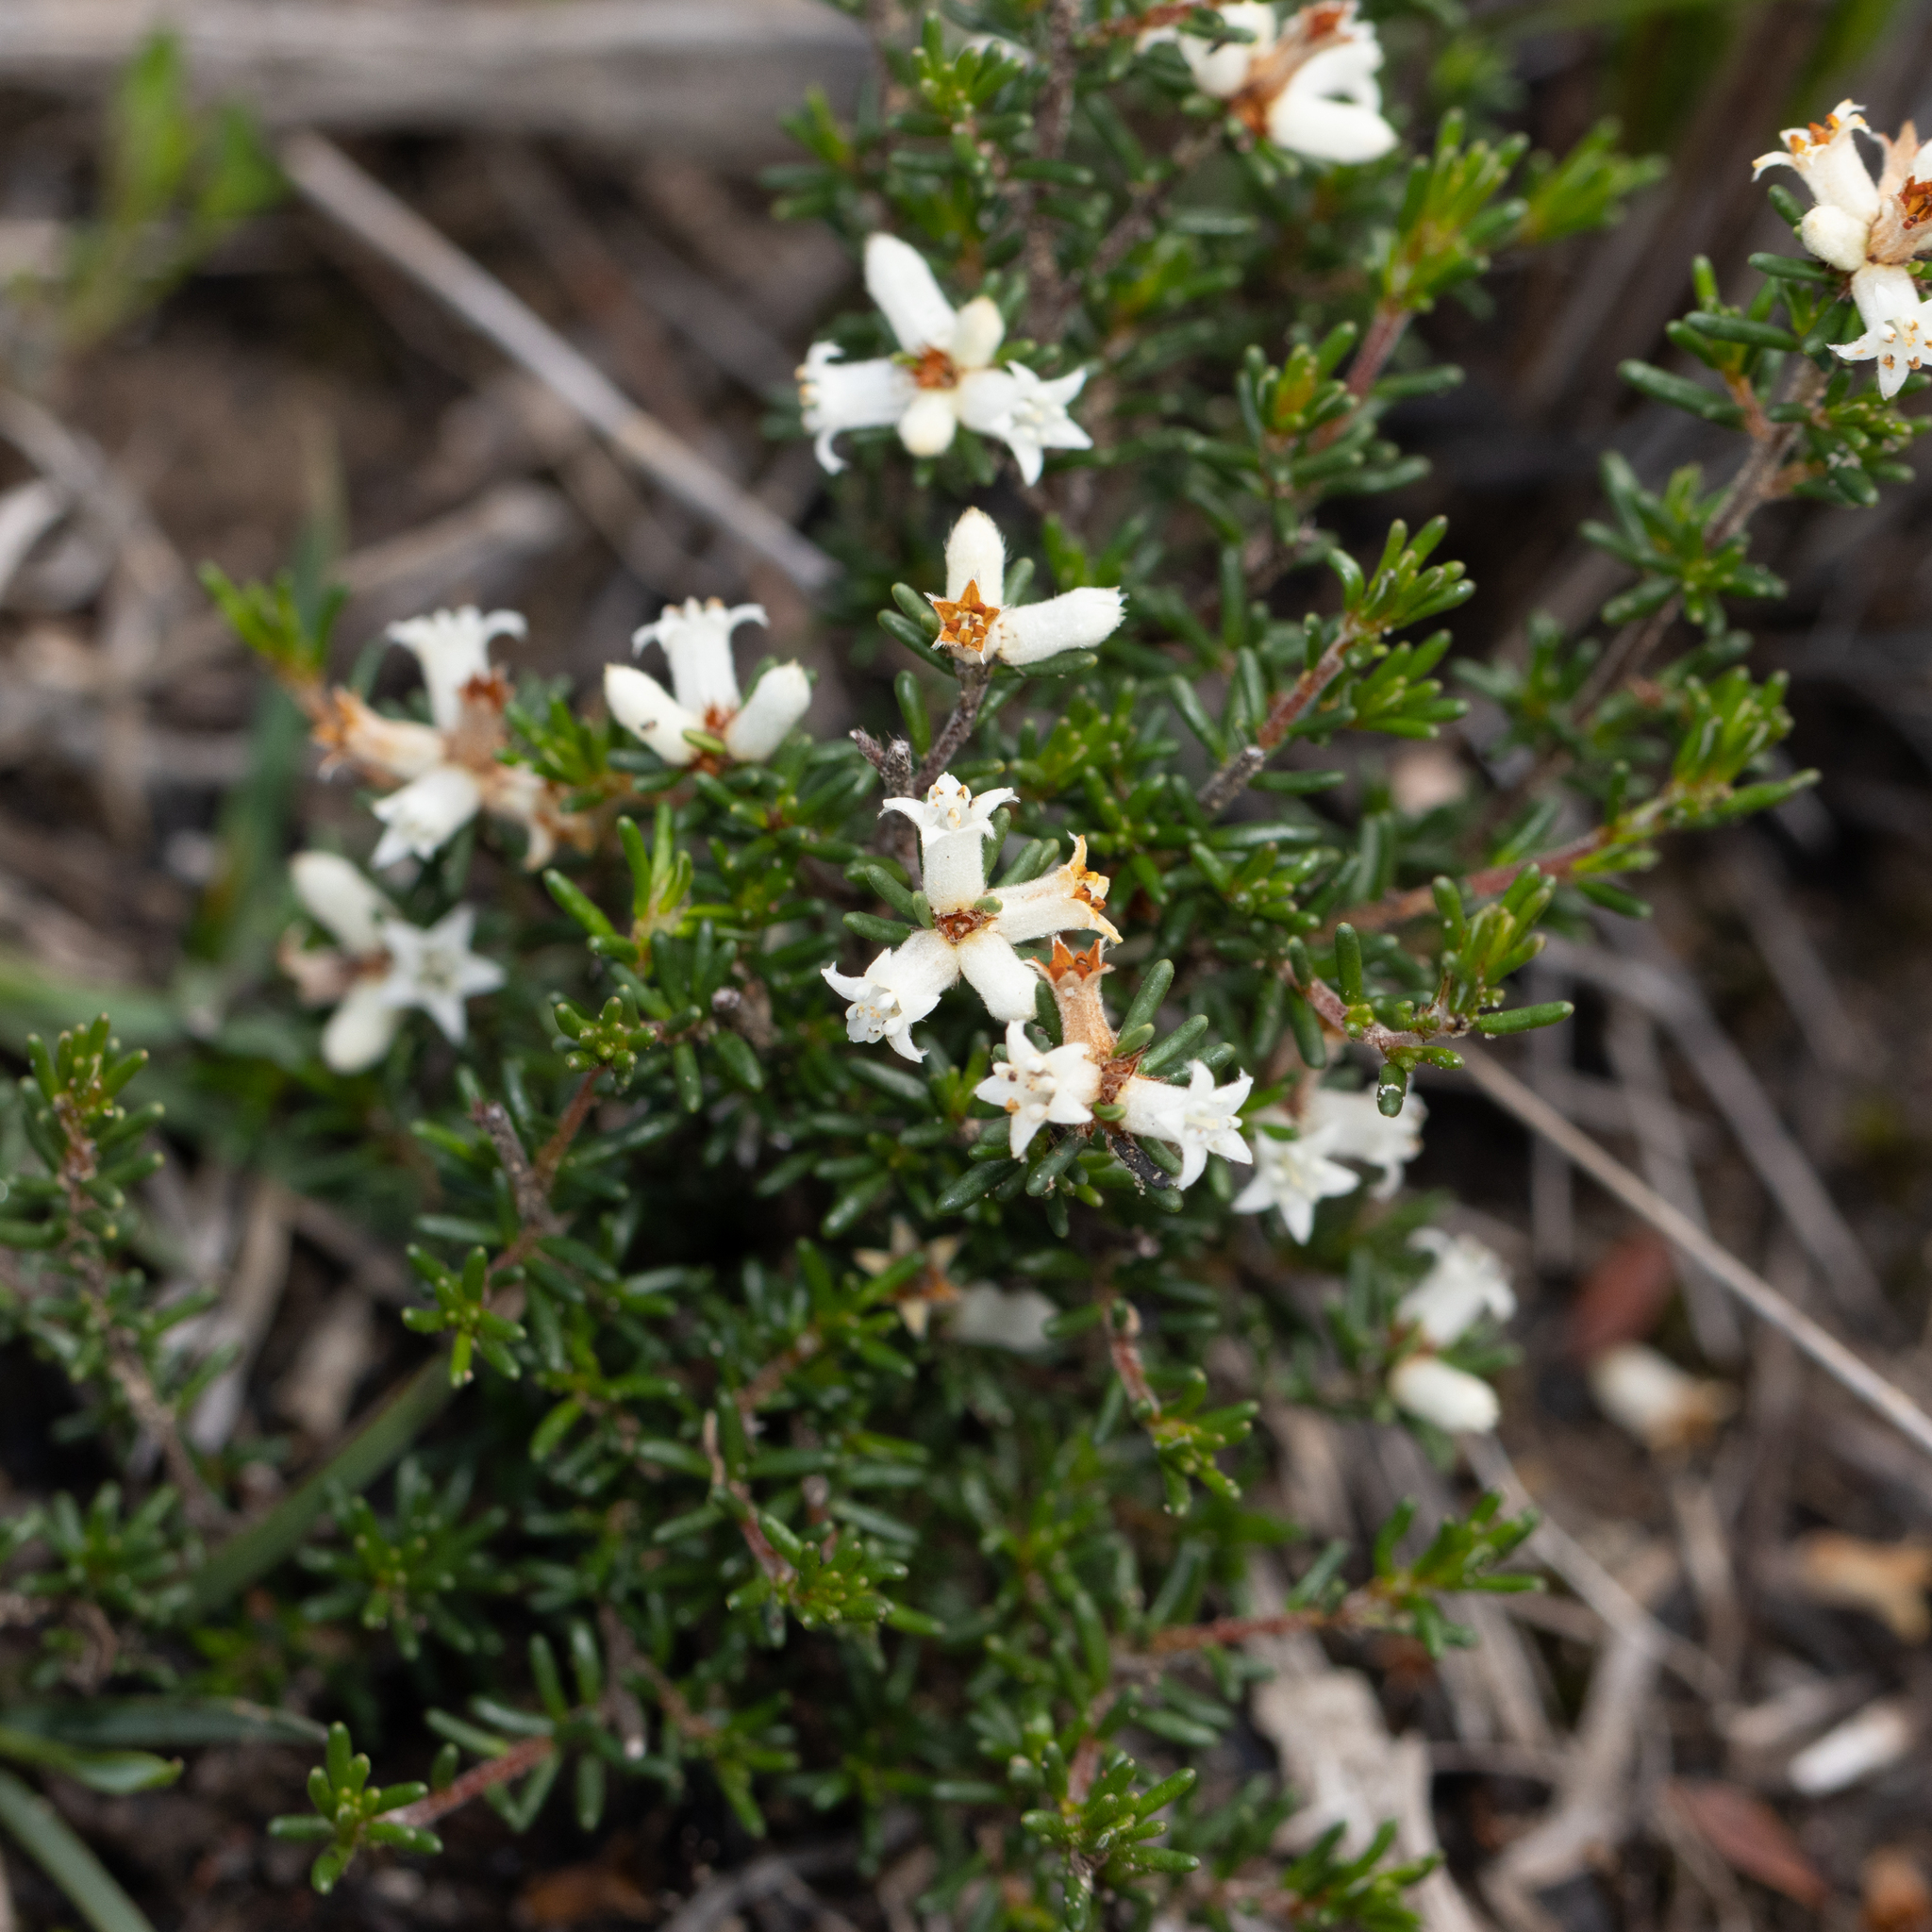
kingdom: Plantae
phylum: Tracheophyta
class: Magnoliopsida
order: Rosales
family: Rhamnaceae
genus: Cryptandra
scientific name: Cryptandra hispidula
